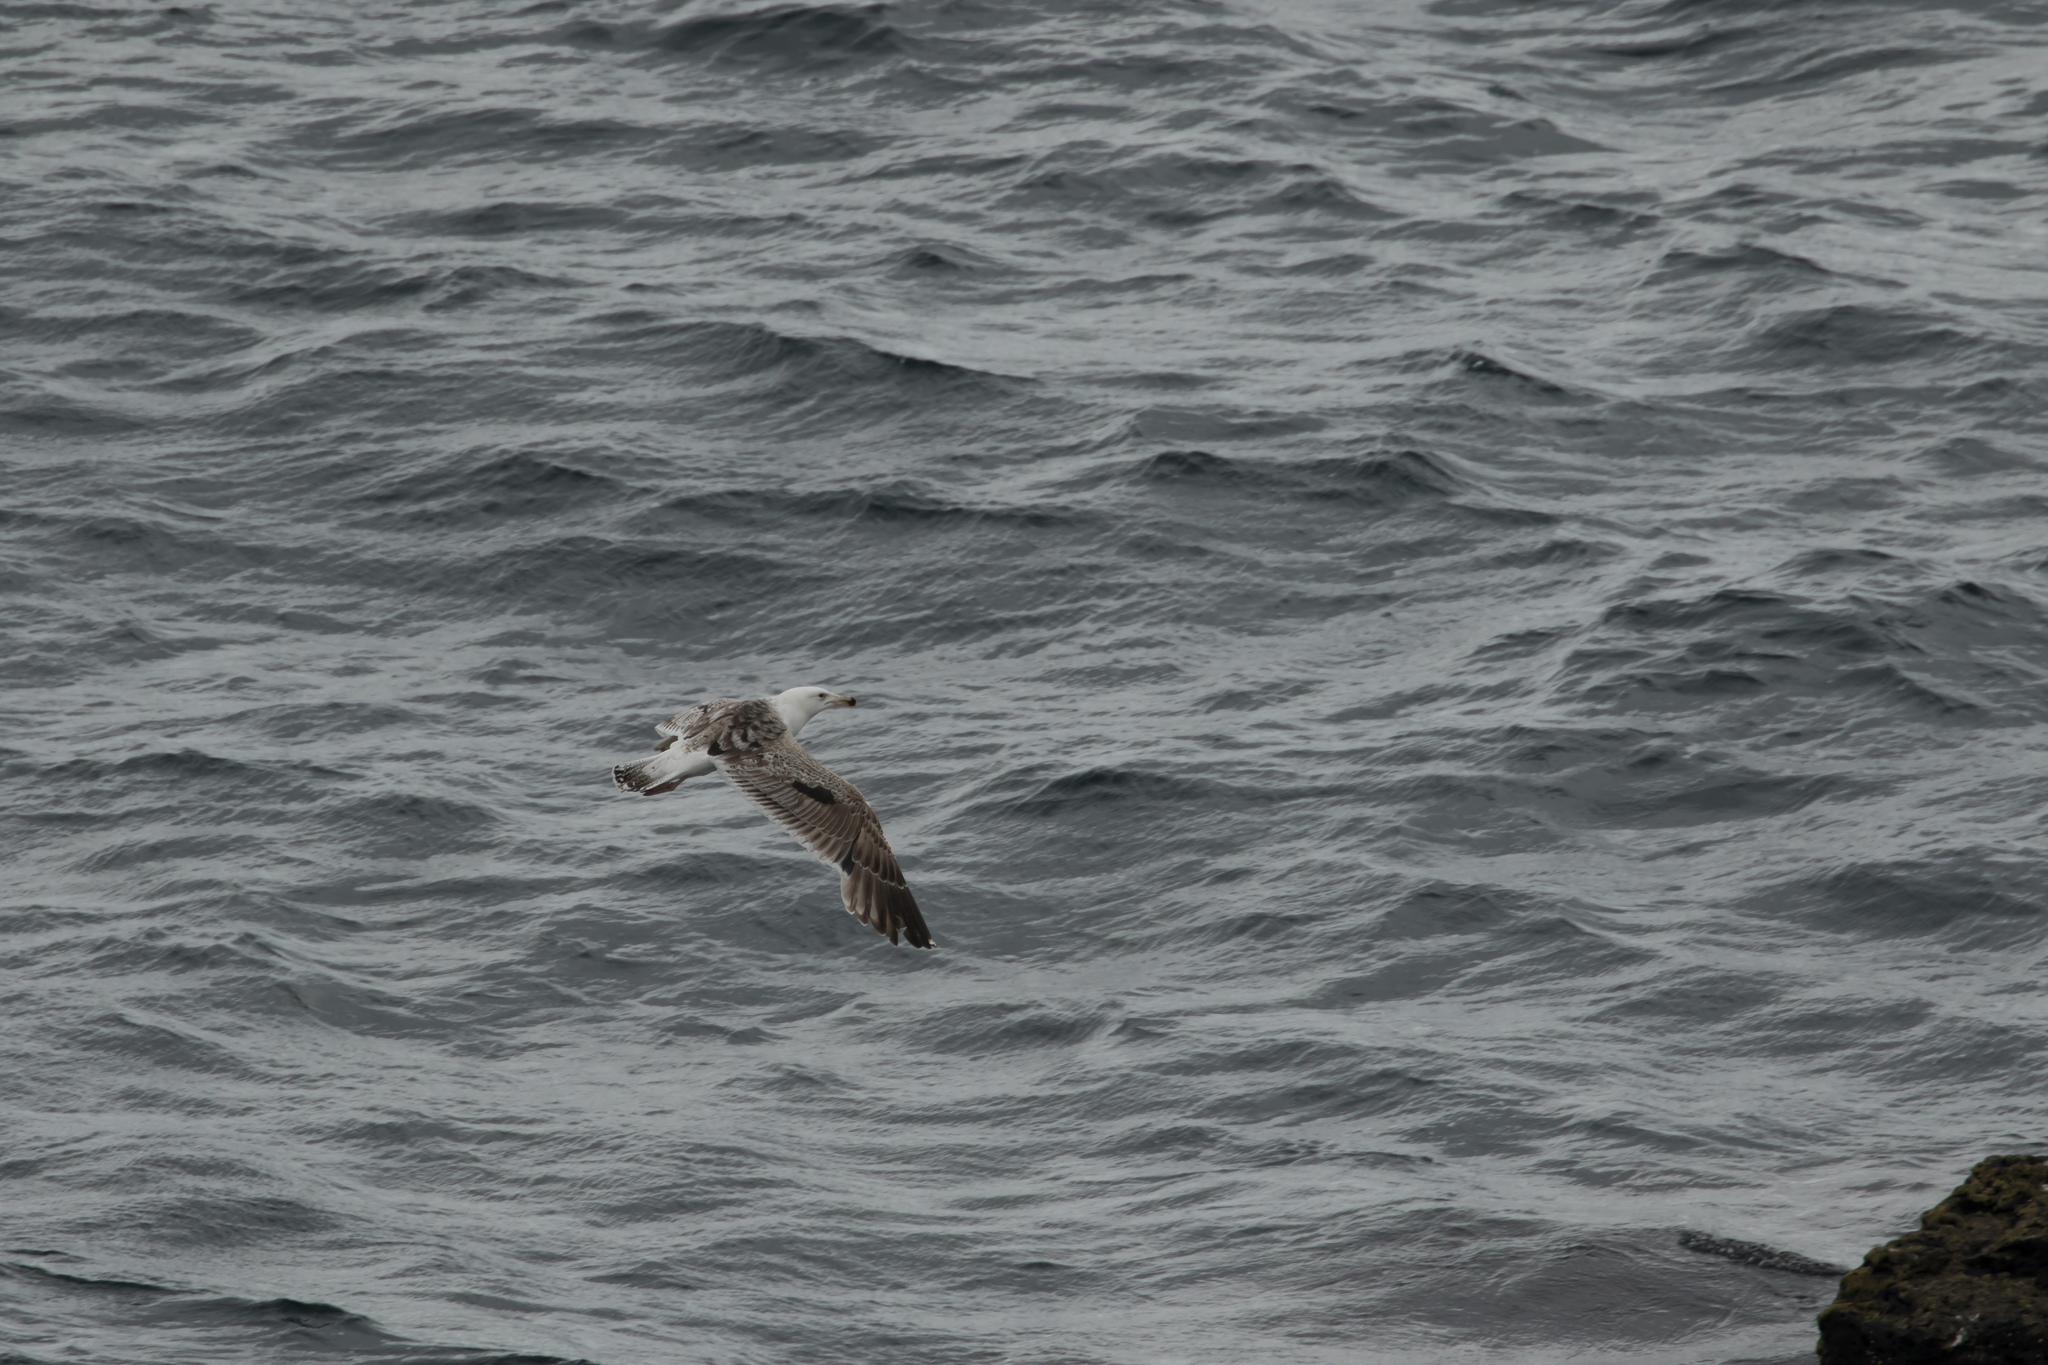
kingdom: Animalia
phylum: Chordata
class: Aves
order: Charadriiformes
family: Laridae
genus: Larus
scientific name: Larus marinus
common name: Great black-backed gull
